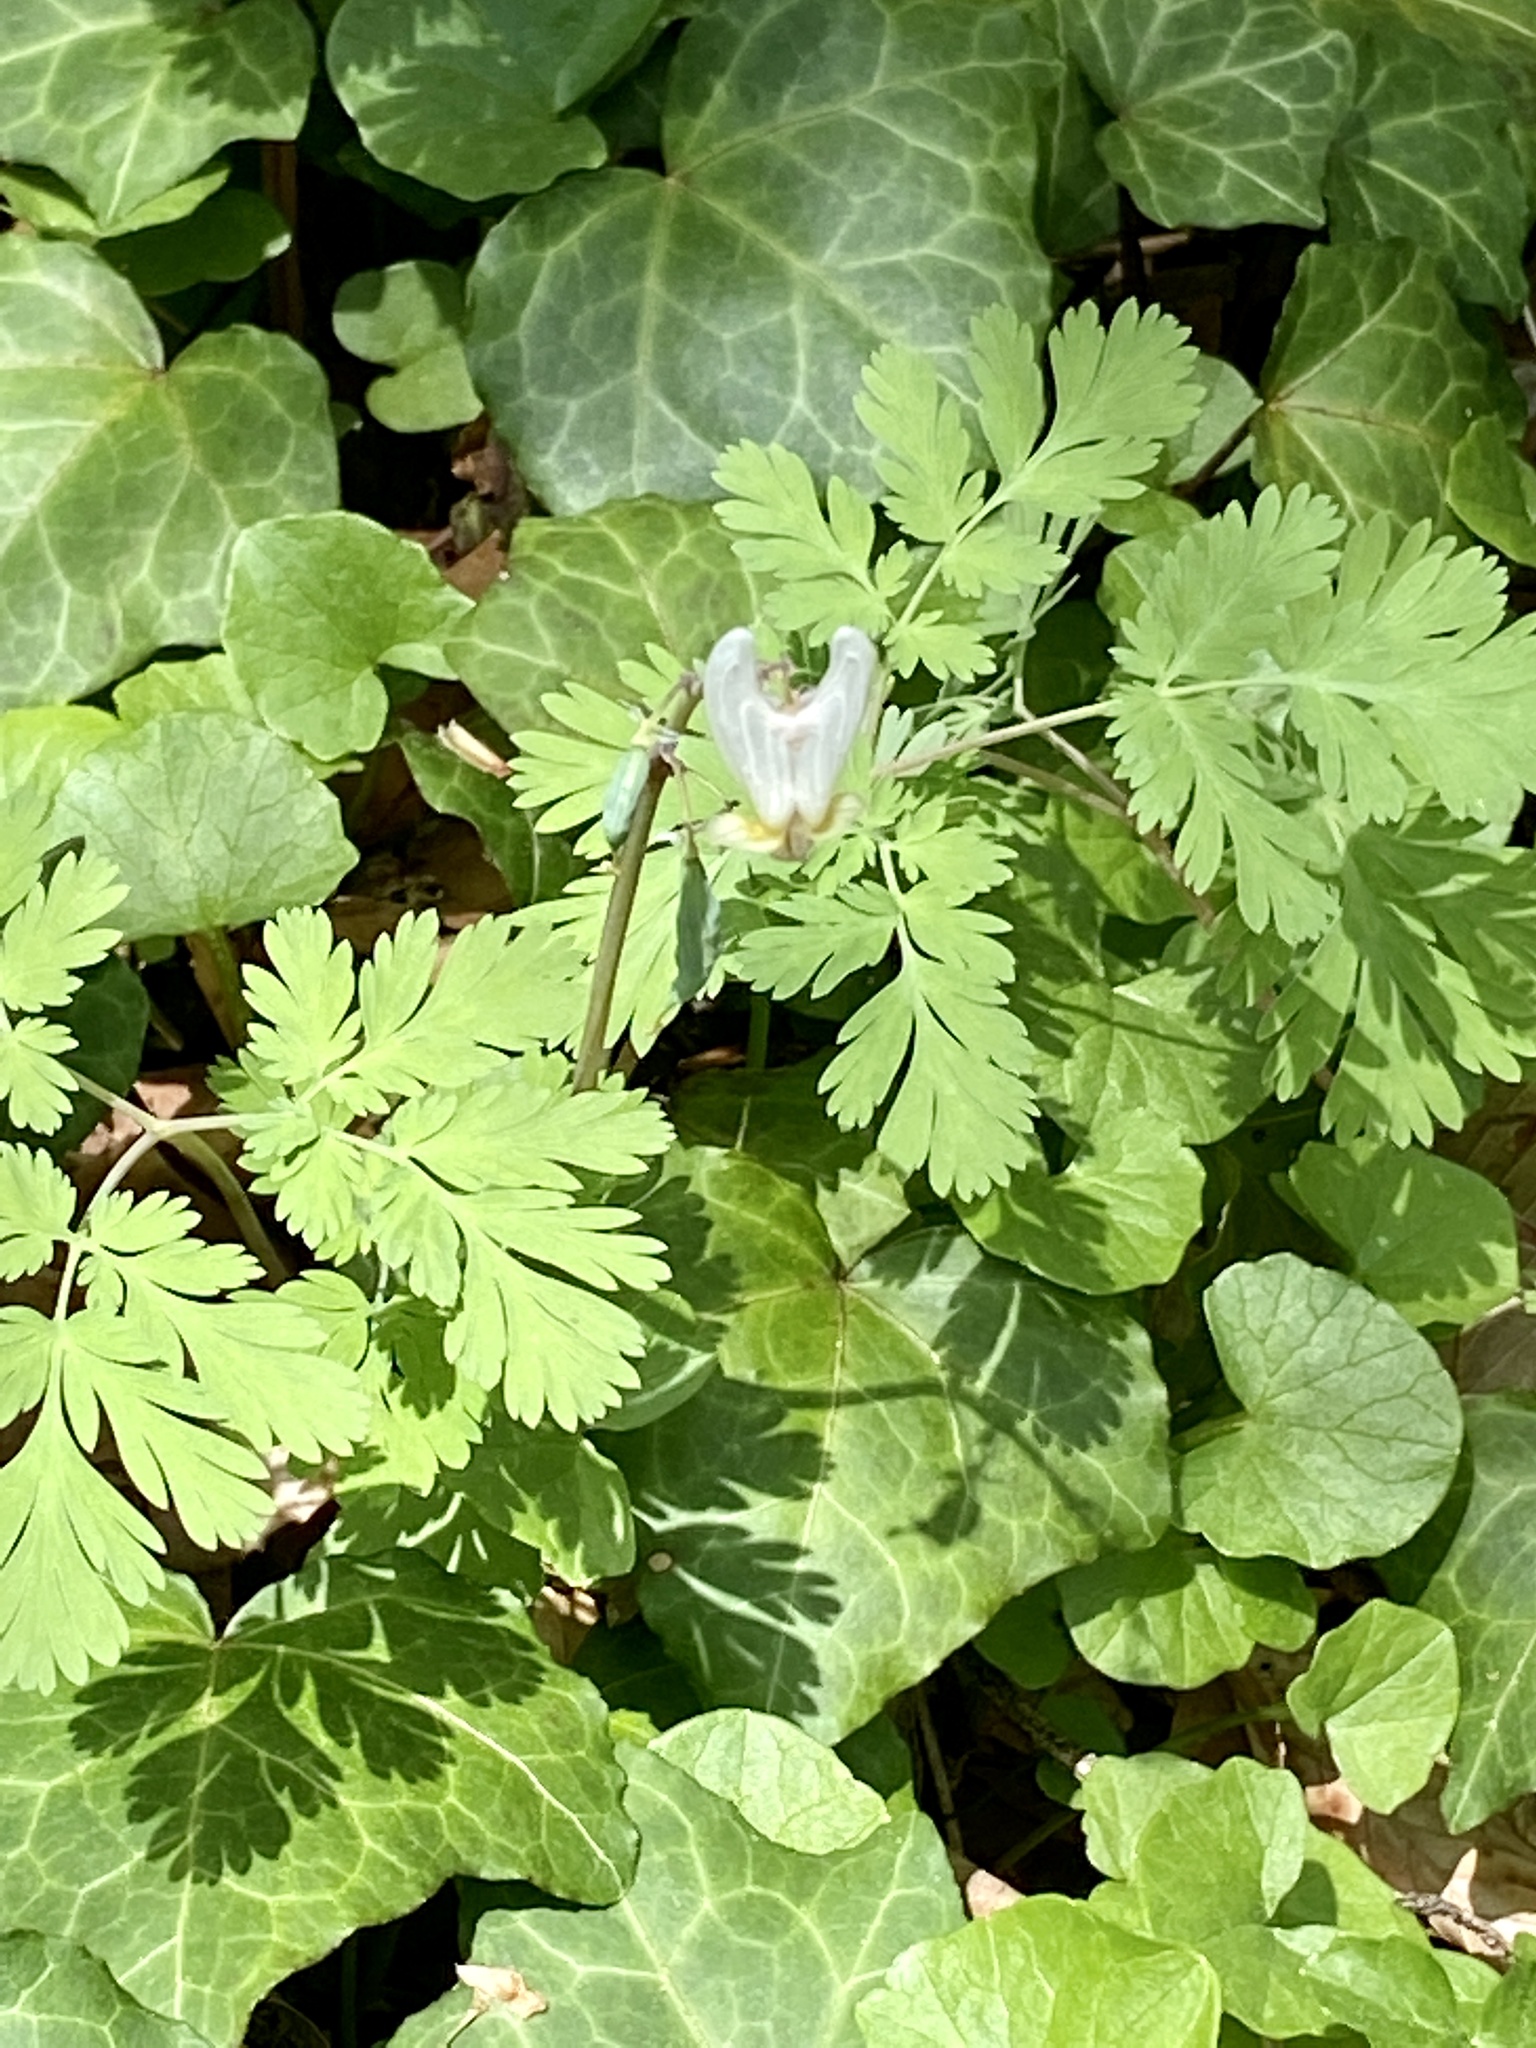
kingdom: Plantae
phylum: Tracheophyta
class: Magnoliopsida
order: Ranunculales
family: Papaveraceae
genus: Dicentra
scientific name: Dicentra cucullaria
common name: Dutchman's breeches
